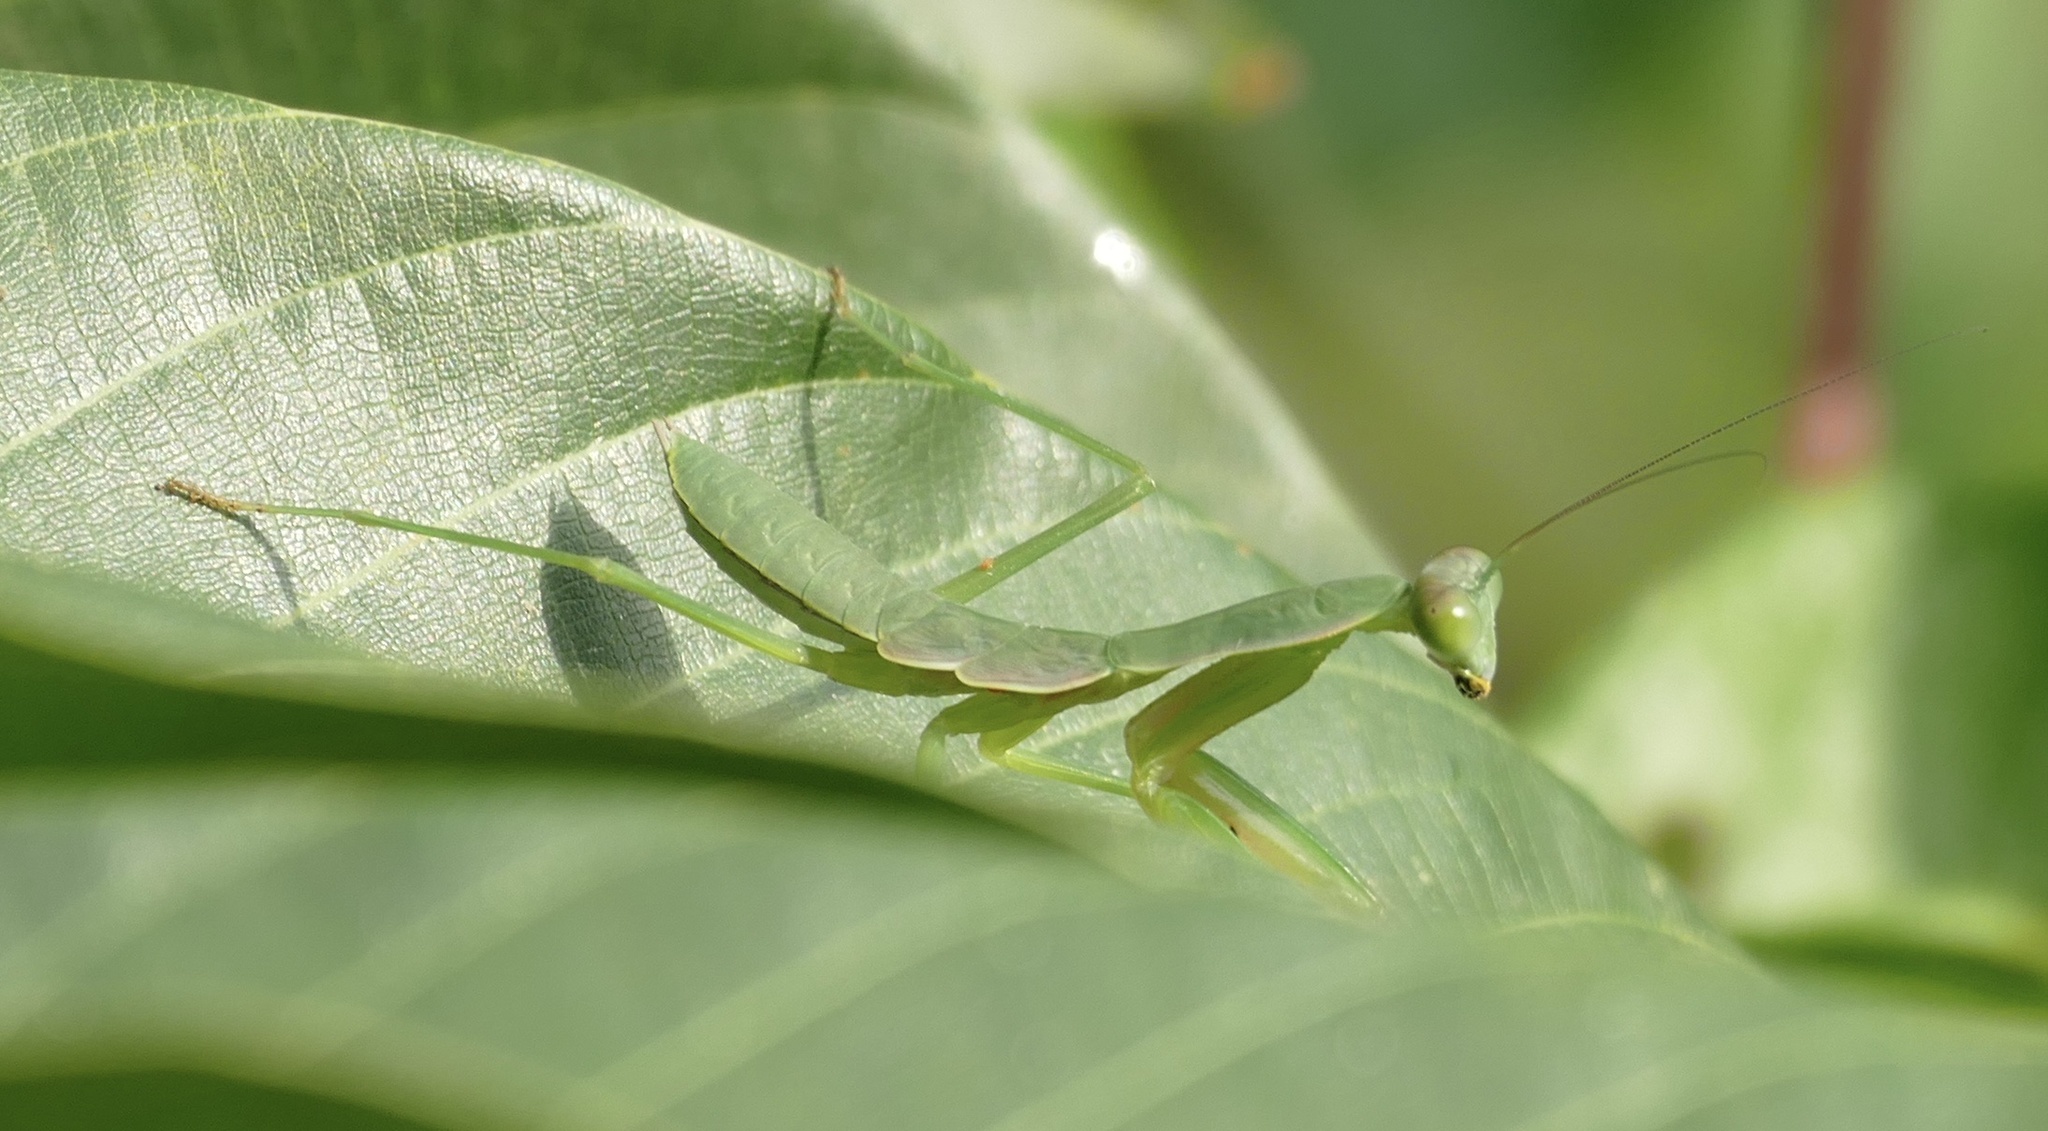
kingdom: Animalia
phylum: Arthropoda
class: Insecta
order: Mantodea
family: Mantidae
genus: Prohierodula
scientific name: Prohierodula laticollis
